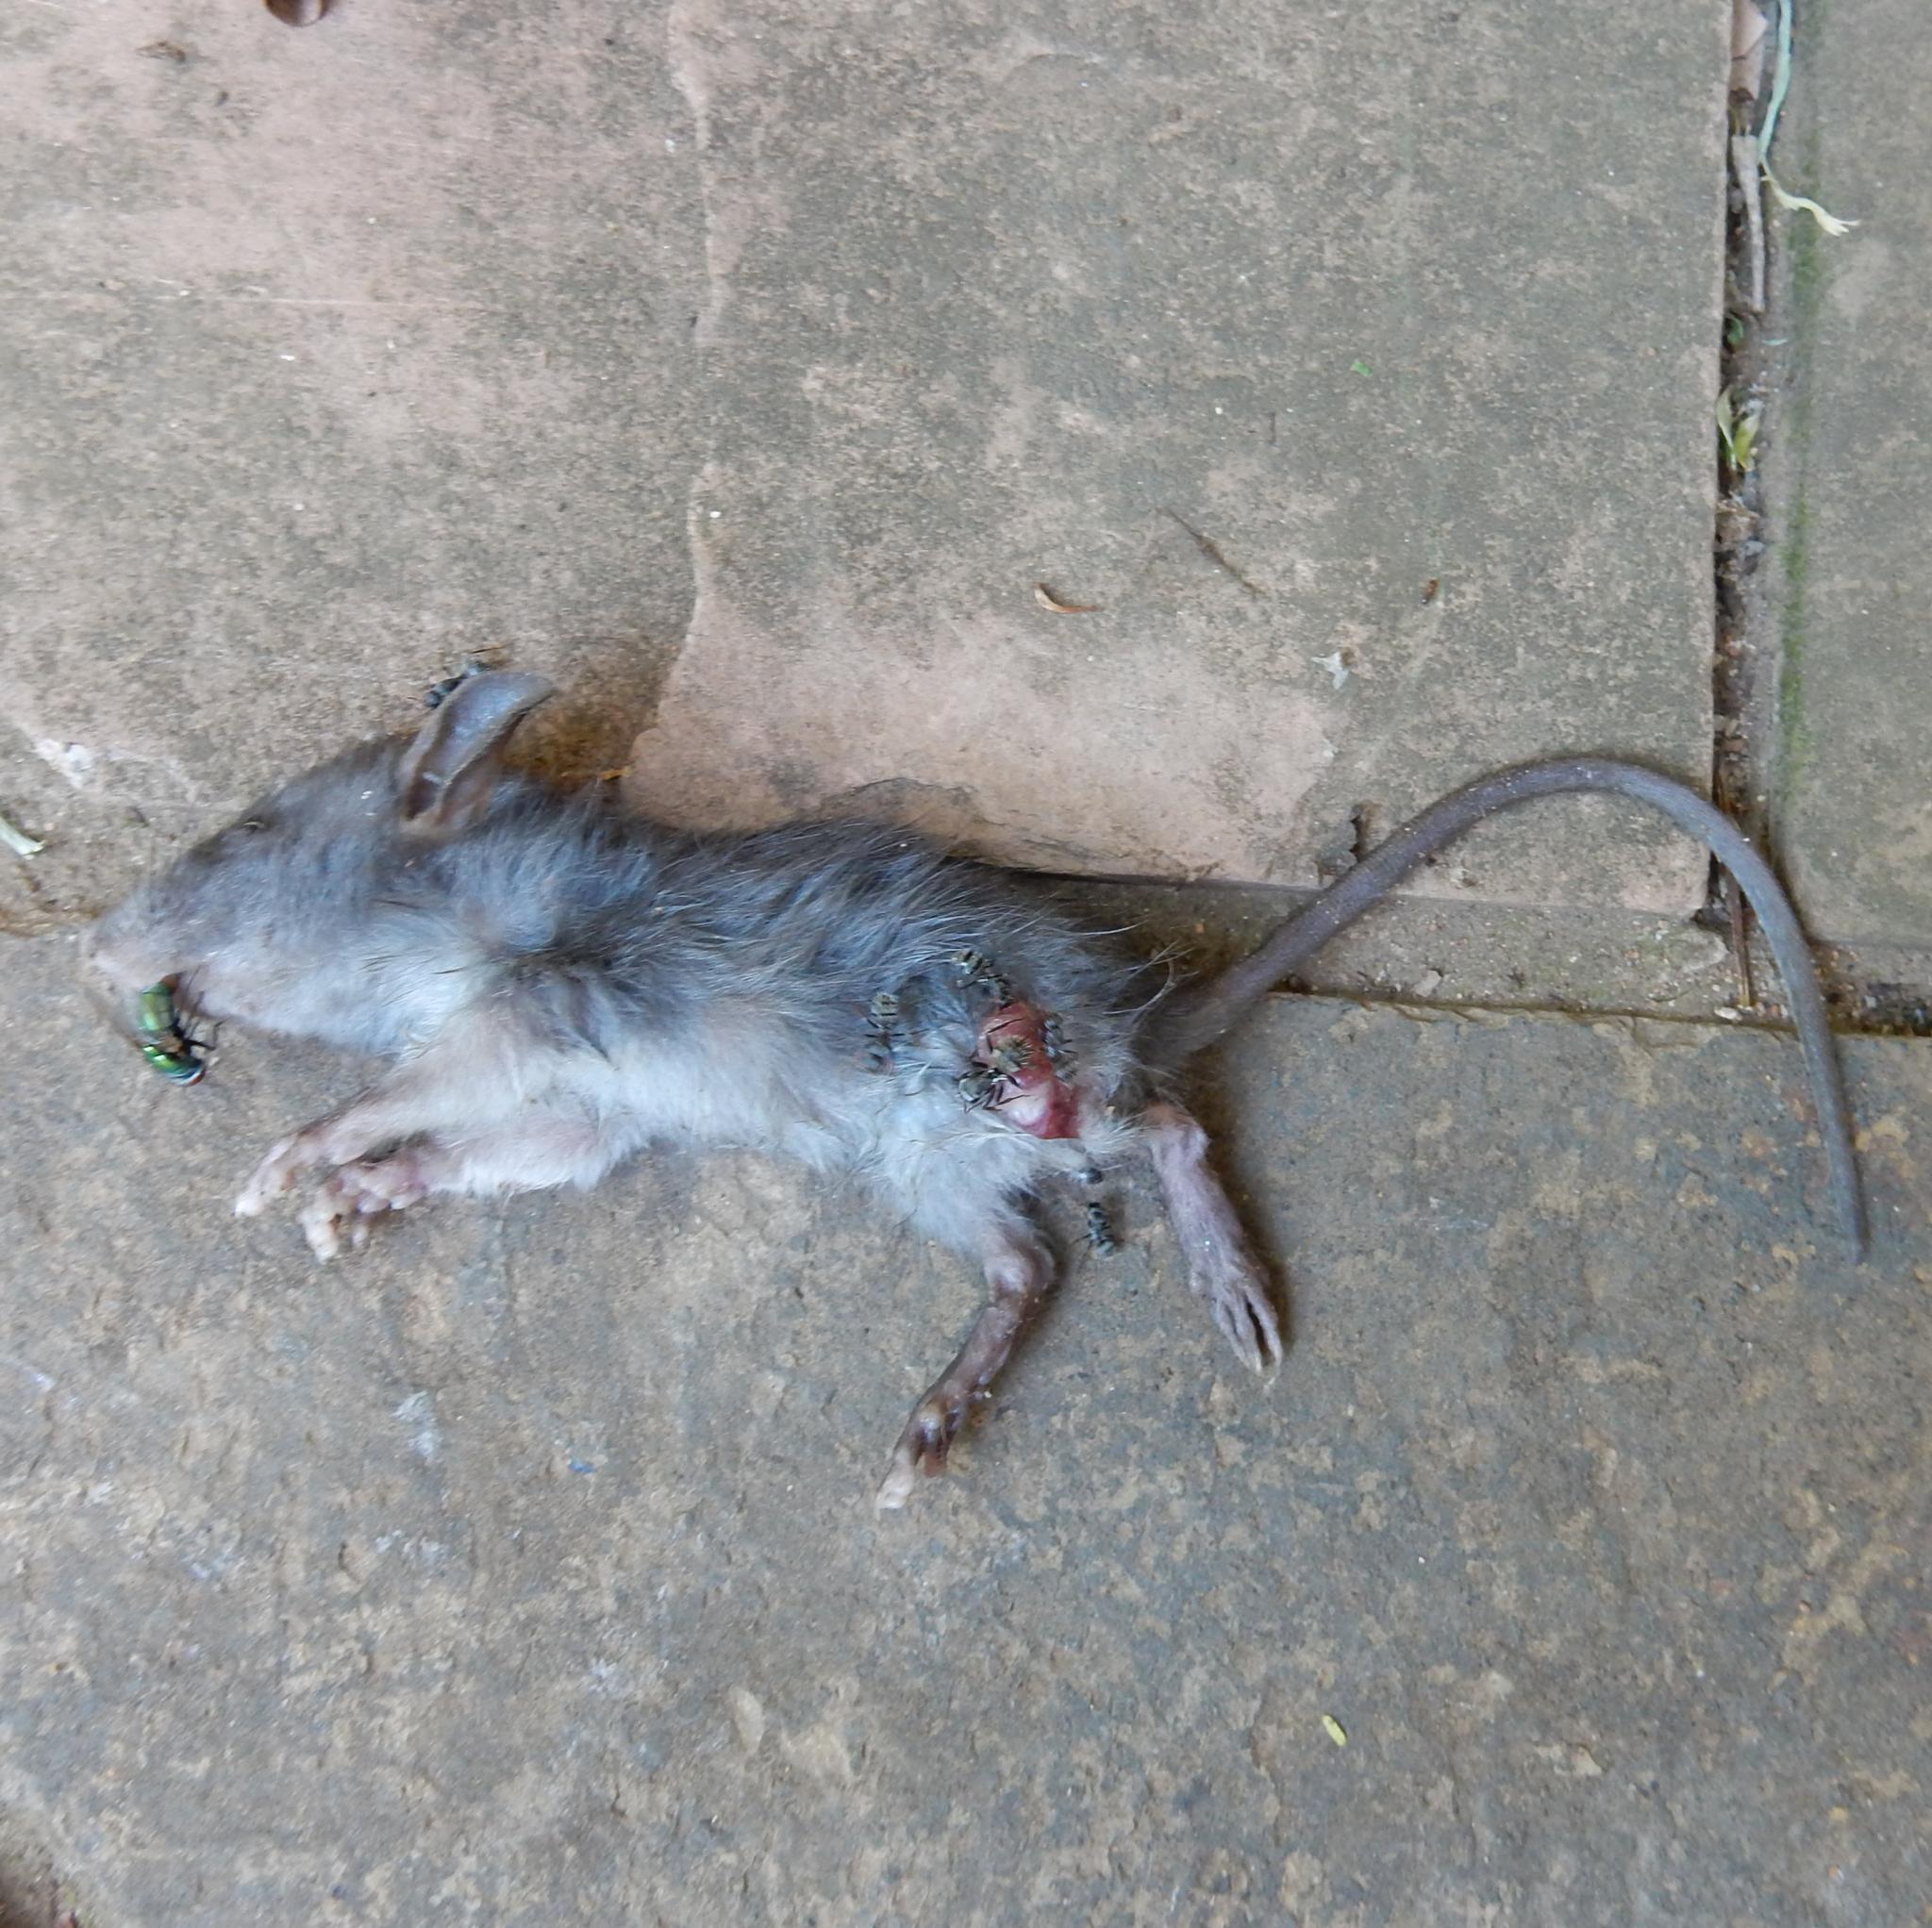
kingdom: Animalia
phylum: Chordata
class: Mammalia
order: Rodentia
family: Muridae
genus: Rattus
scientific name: Rattus rattus
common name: Black rat
